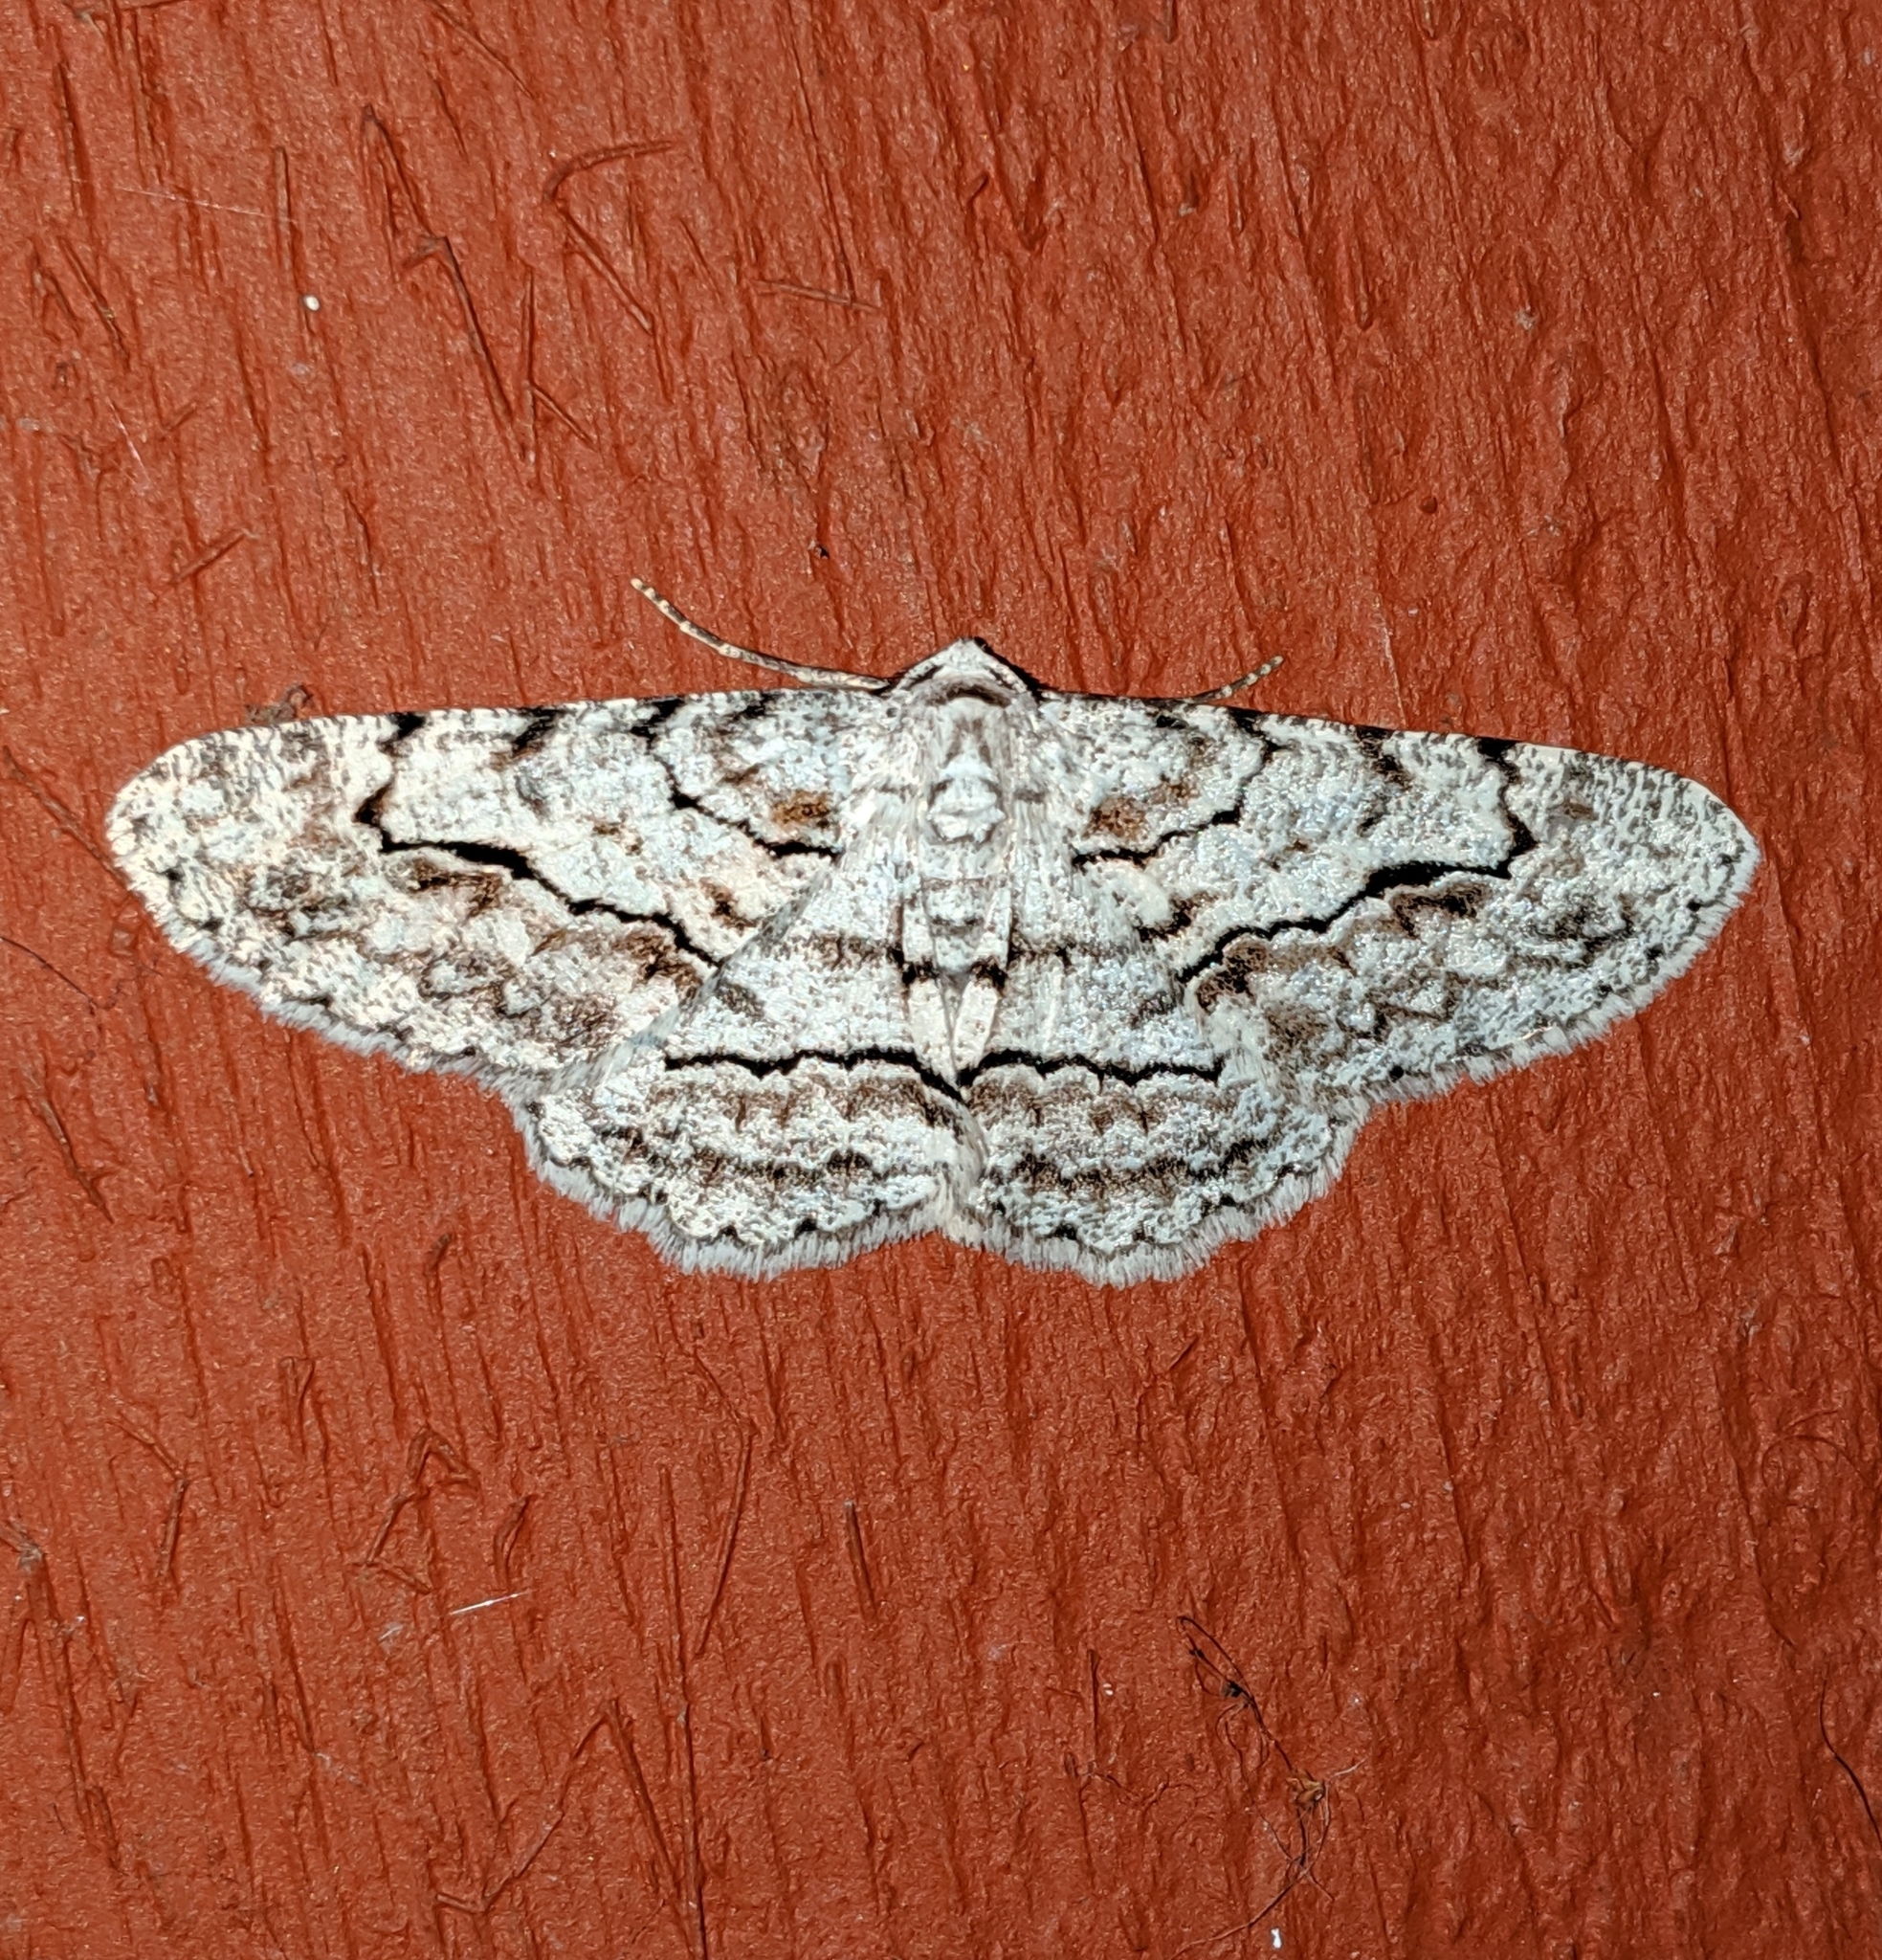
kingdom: Animalia
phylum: Arthropoda
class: Insecta
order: Lepidoptera
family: Geometridae
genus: Stenoporpia
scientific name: Stenoporpia pulmonaria
